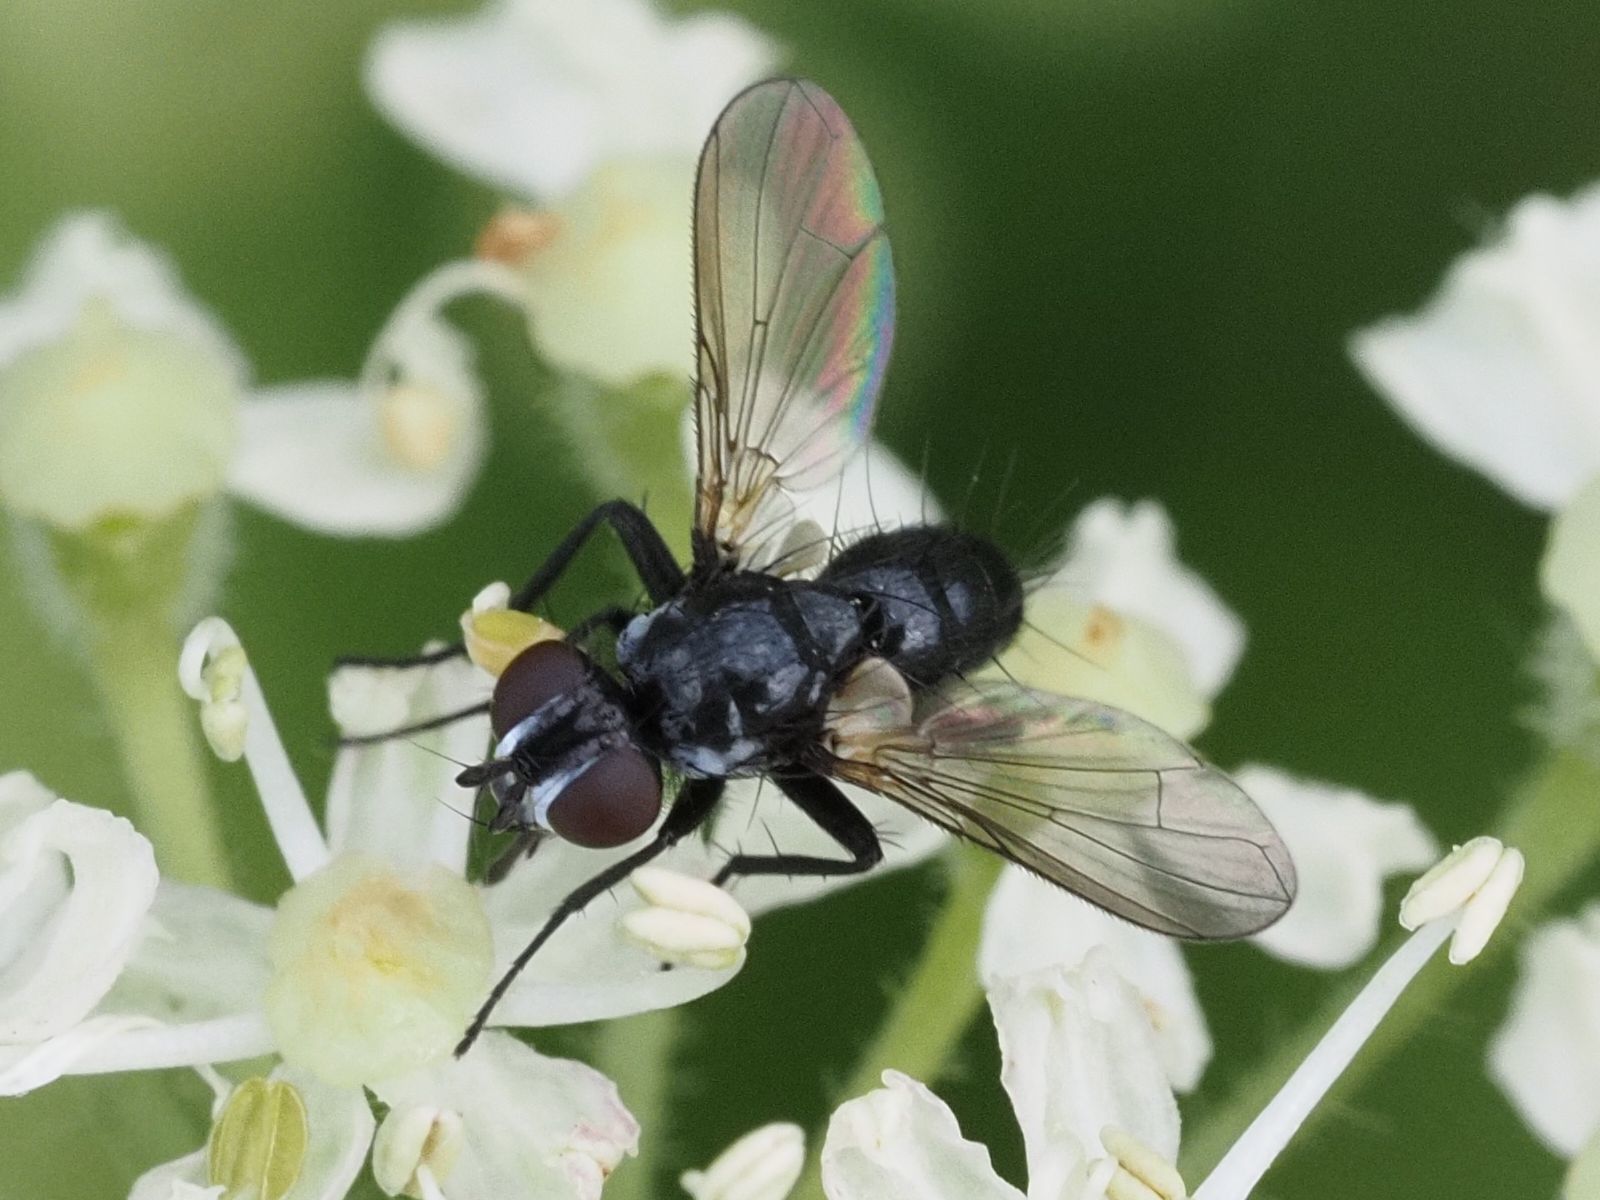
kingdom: Animalia
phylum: Arthropoda
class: Insecta
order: Diptera
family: Tachinidae
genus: Phania
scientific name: Phania funesta
